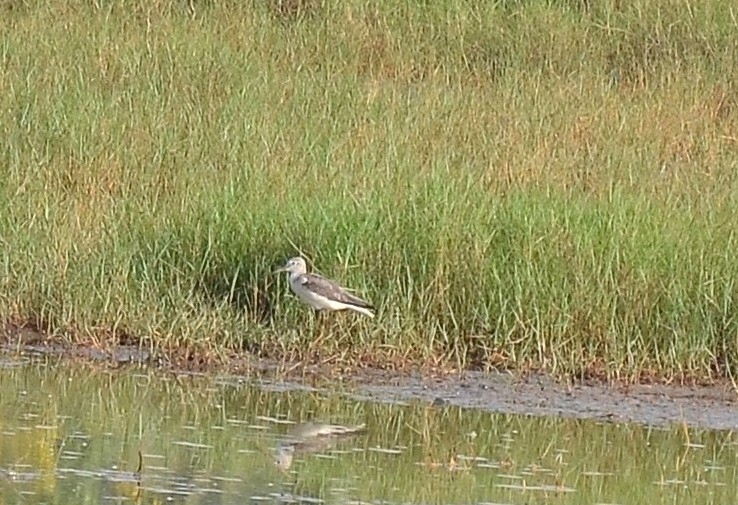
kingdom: Animalia
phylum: Chordata
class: Aves
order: Charadriiformes
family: Scolopacidae
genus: Tringa
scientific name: Tringa nebularia
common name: Common greenshank
